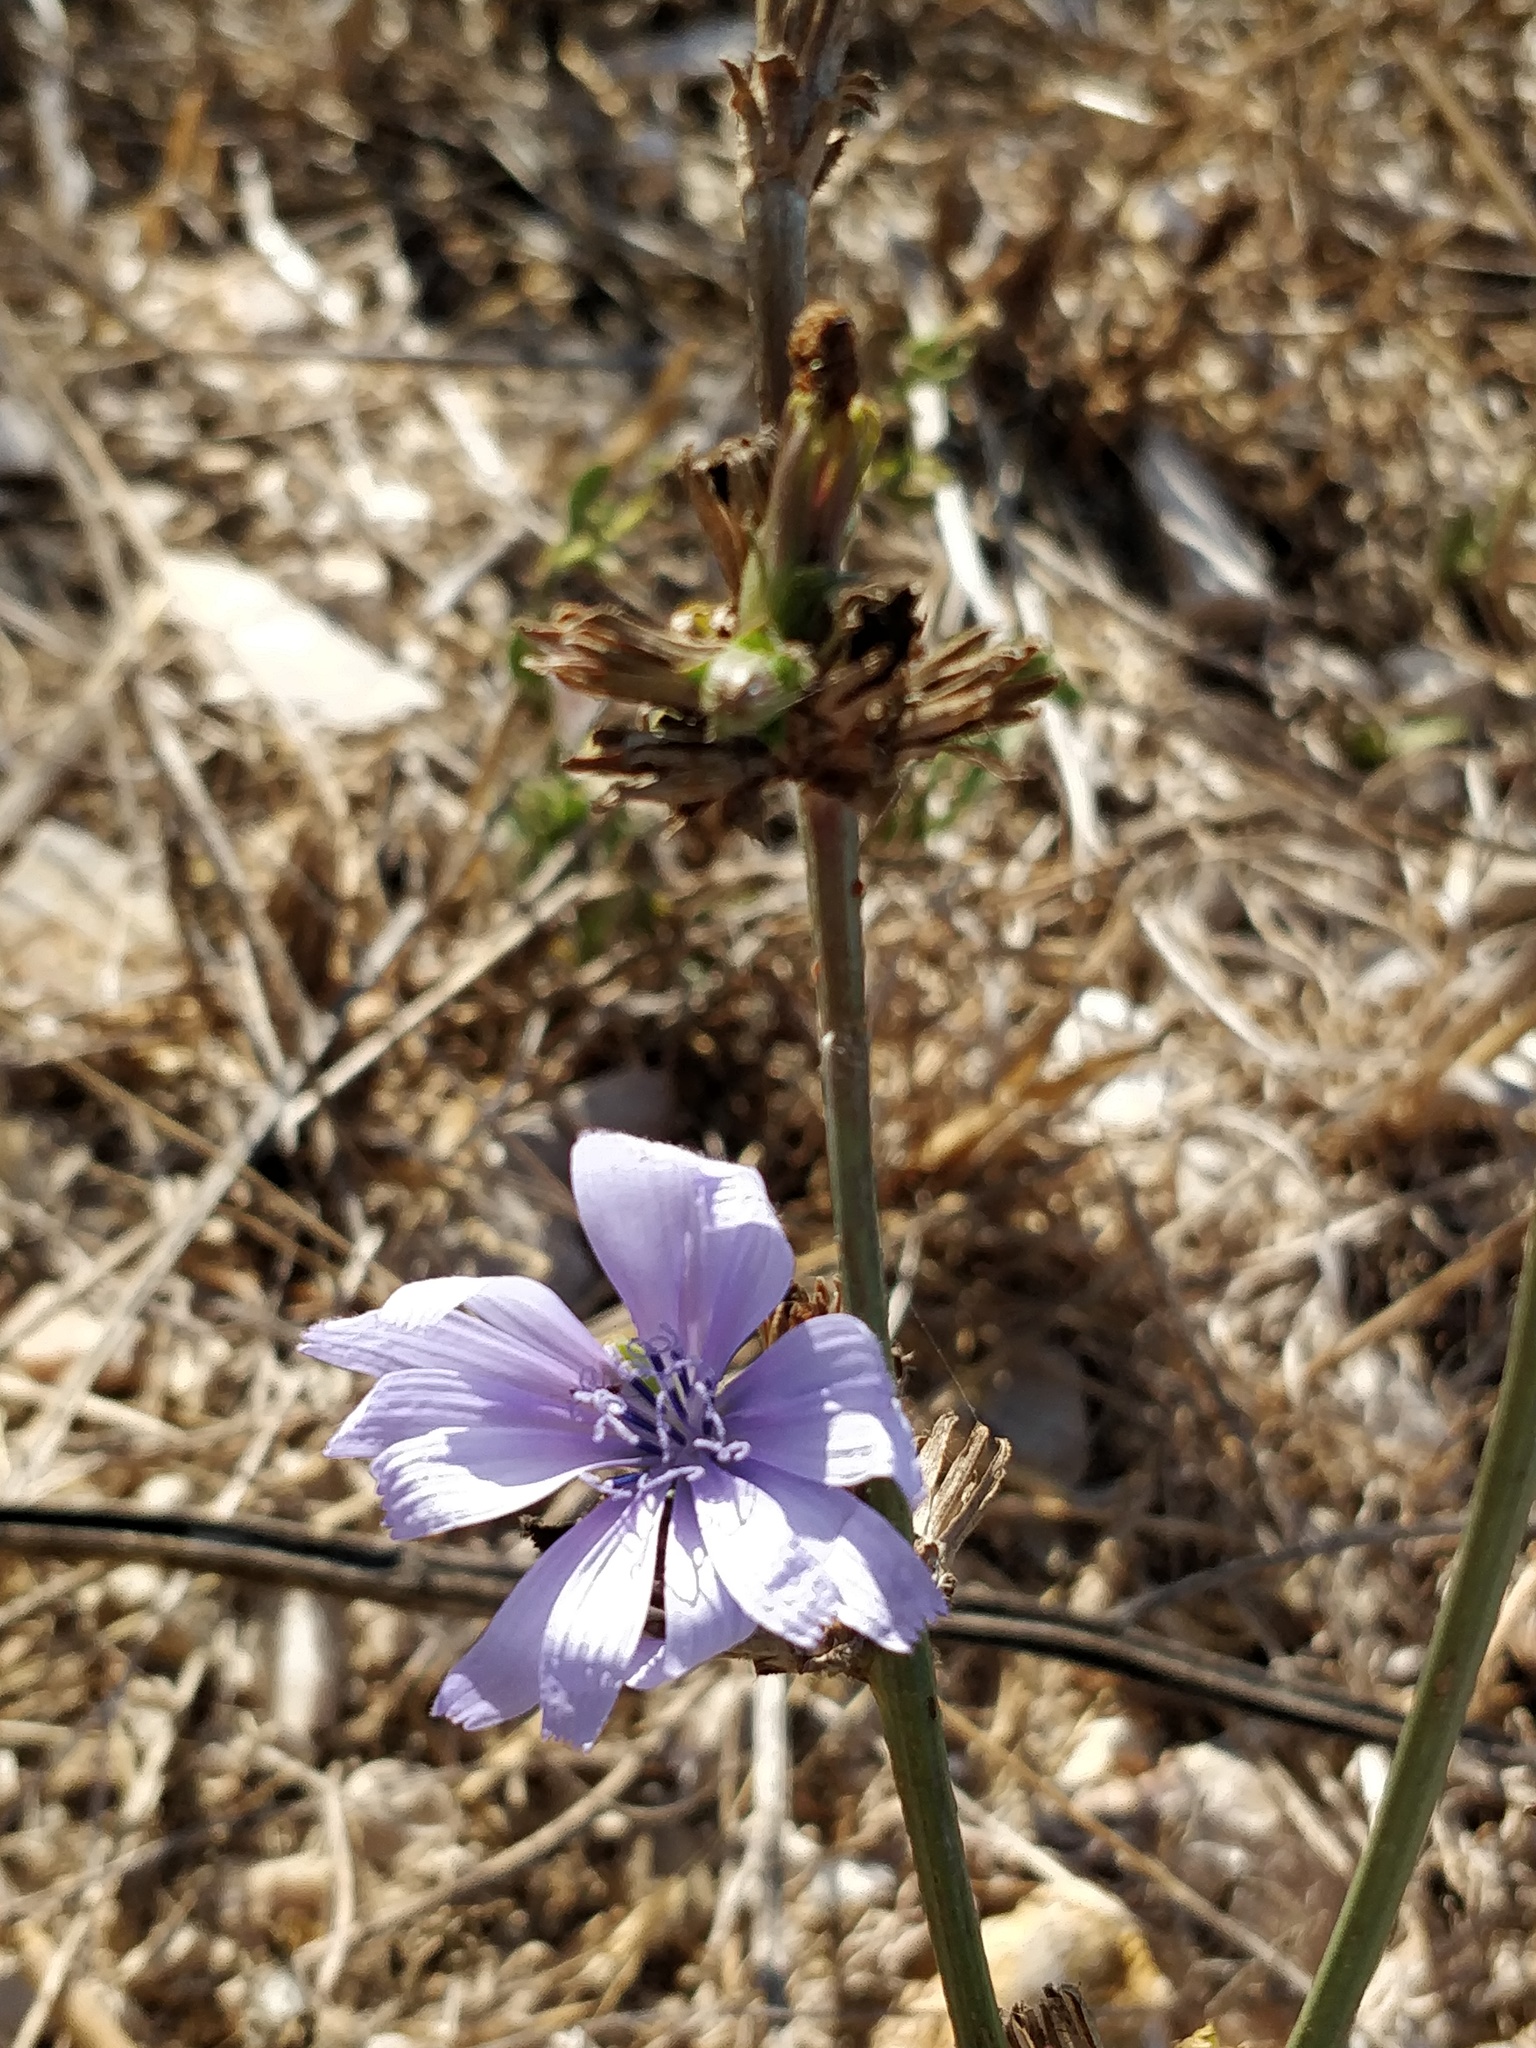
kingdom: Plantae
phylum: Tracheophyta
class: Magnoliopsida
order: Asterales
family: Asteraceae
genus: Cichorium
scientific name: Cichorium intybus
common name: Chicory
